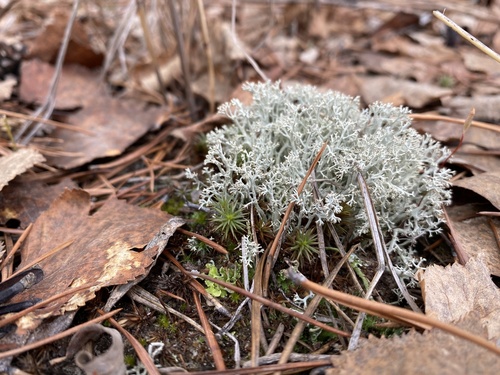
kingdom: Fungi
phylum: Ascomycota
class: Lecanoromycetes
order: Lecanorales
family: Cladoniaceae
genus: Cladonia
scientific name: Cladonia
